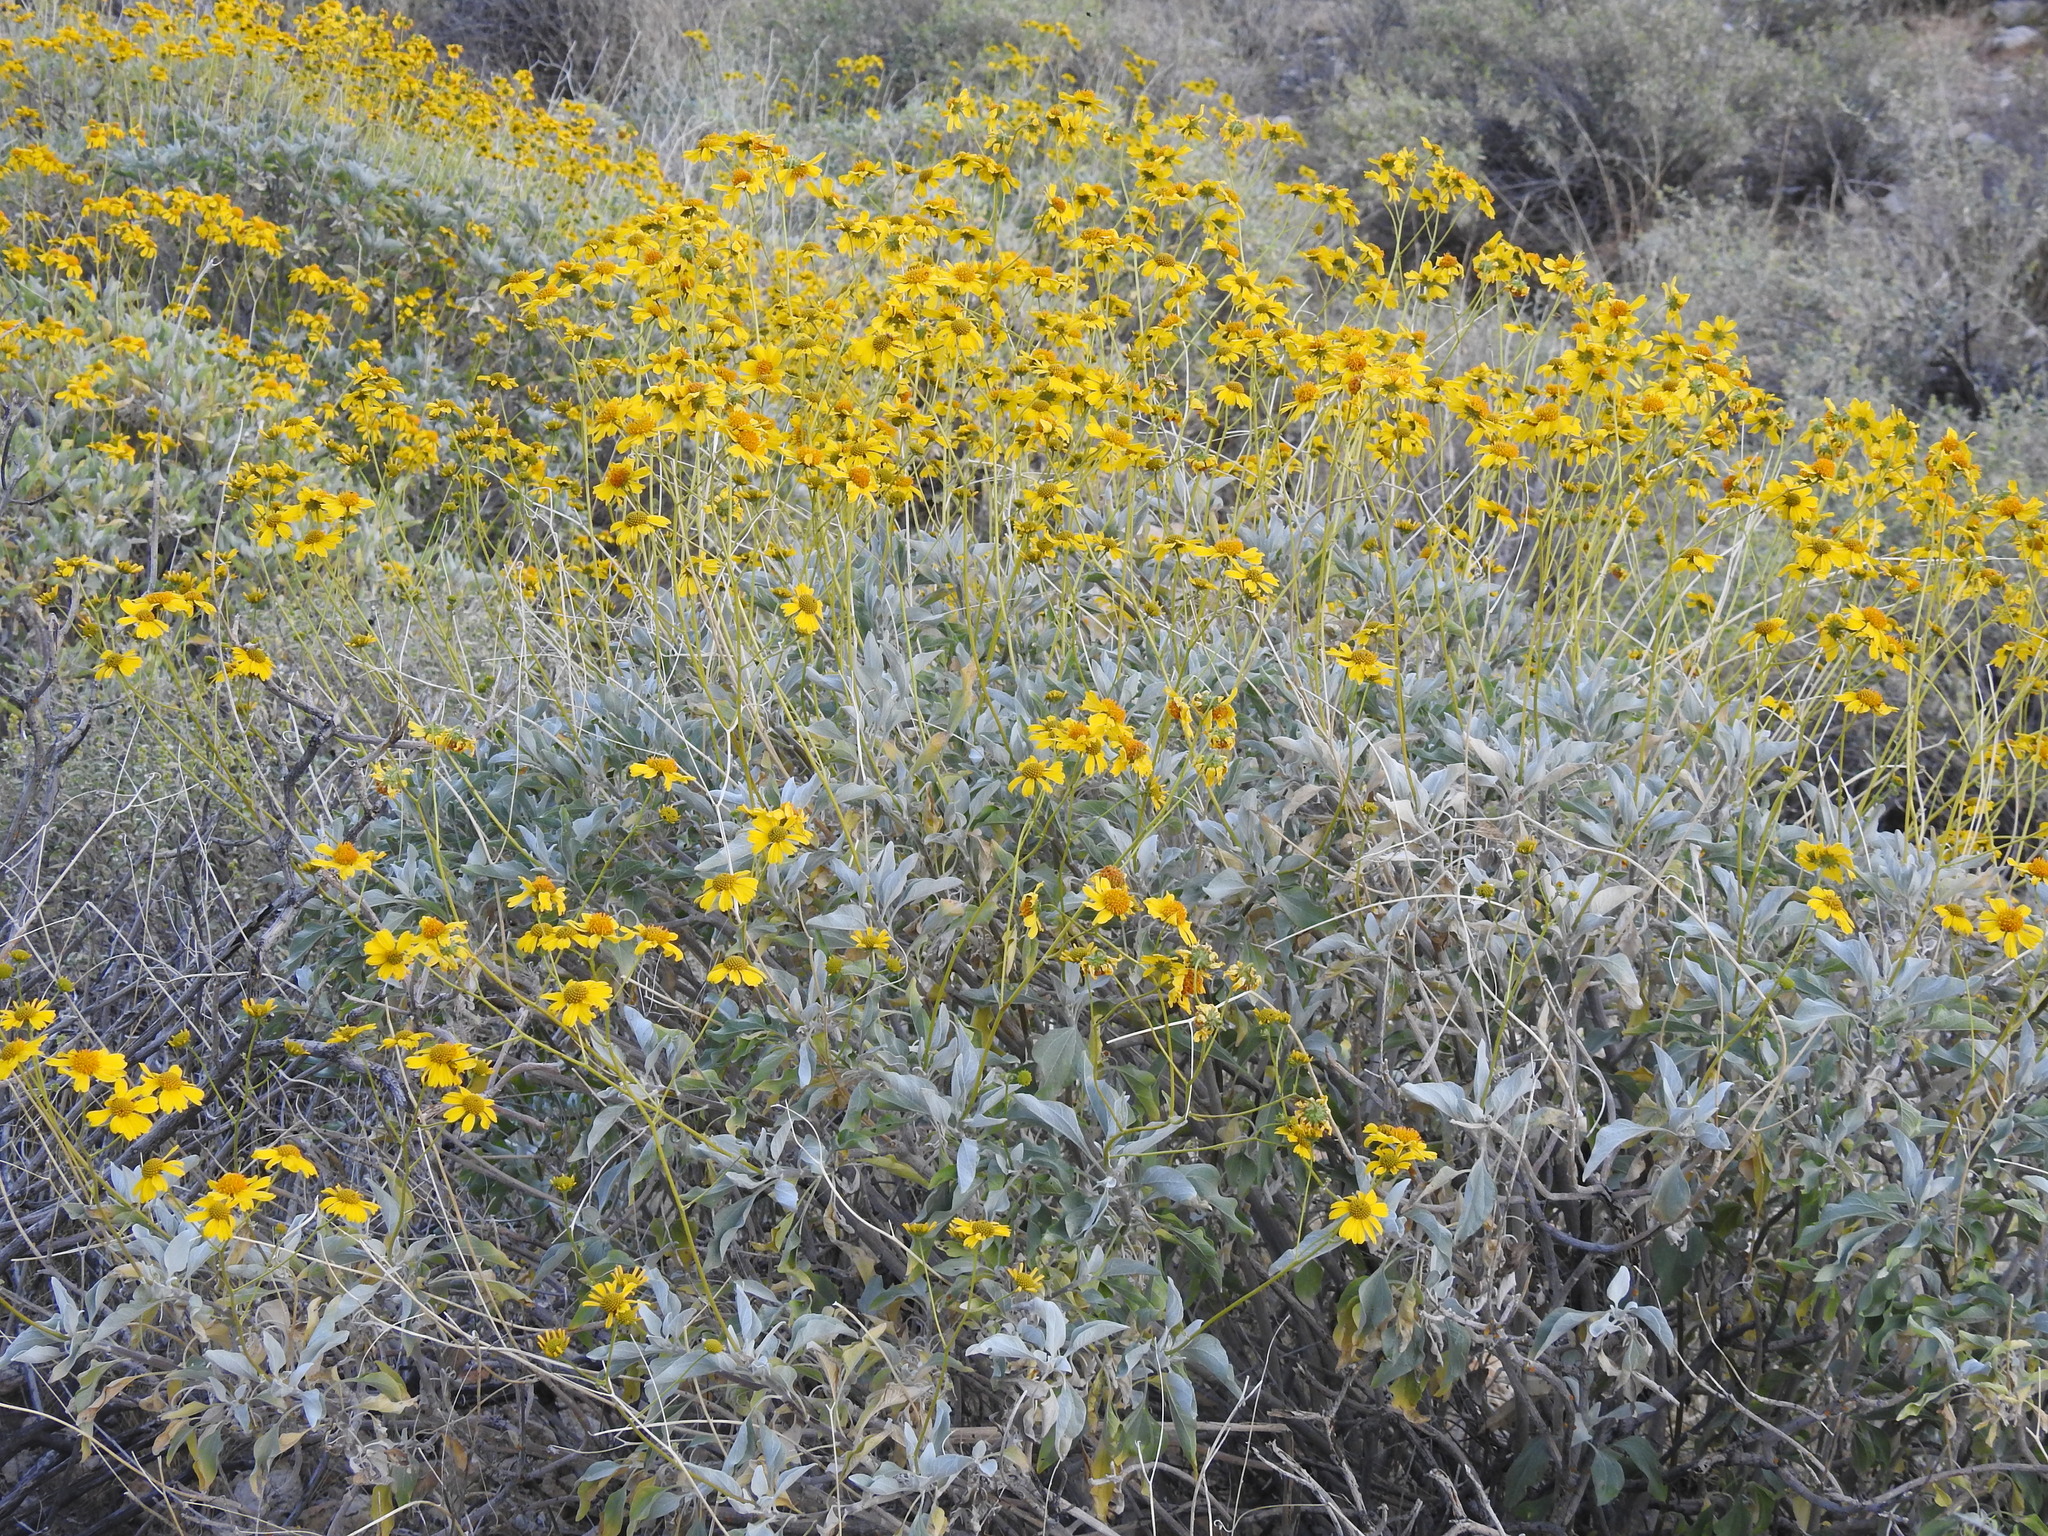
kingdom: Plantae
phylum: Tracheophyta
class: Magnoliopsida
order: Asterales
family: Asteraceae
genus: Encelia
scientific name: Encelia farinosa
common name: Brittlebush
